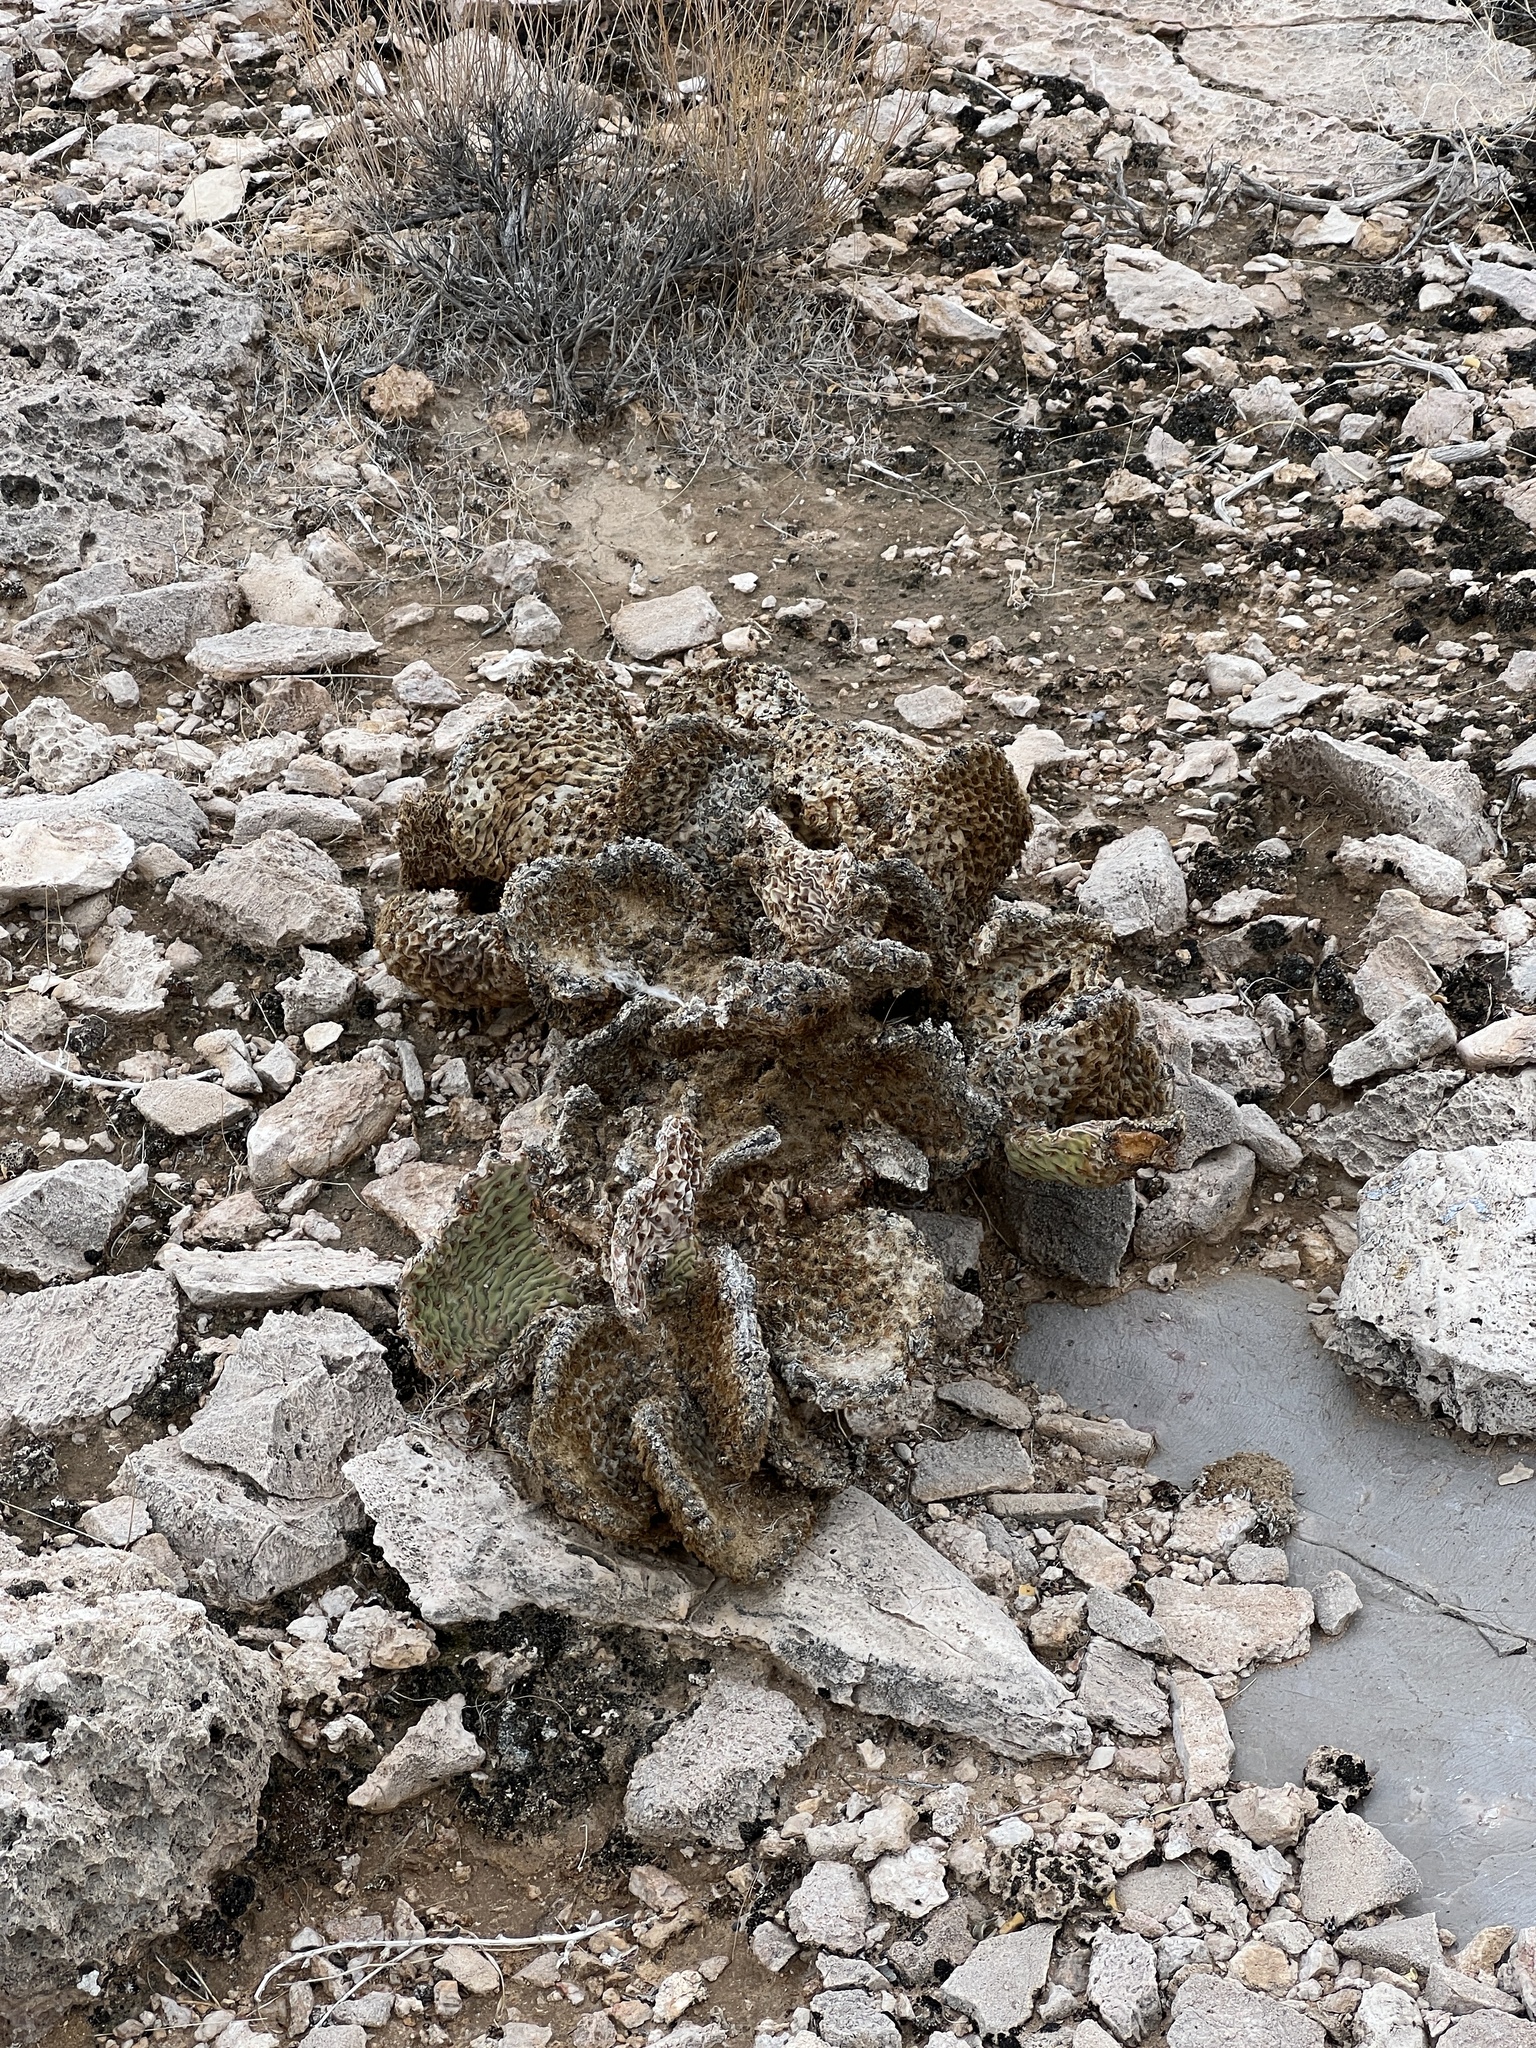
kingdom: Plantae
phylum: Tracheophyta
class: Magnoliopsida
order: Caryophyllales
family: Cactaceae
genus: Opuntia
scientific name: Opuntia basilaris
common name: Beavertail prickly-pear
